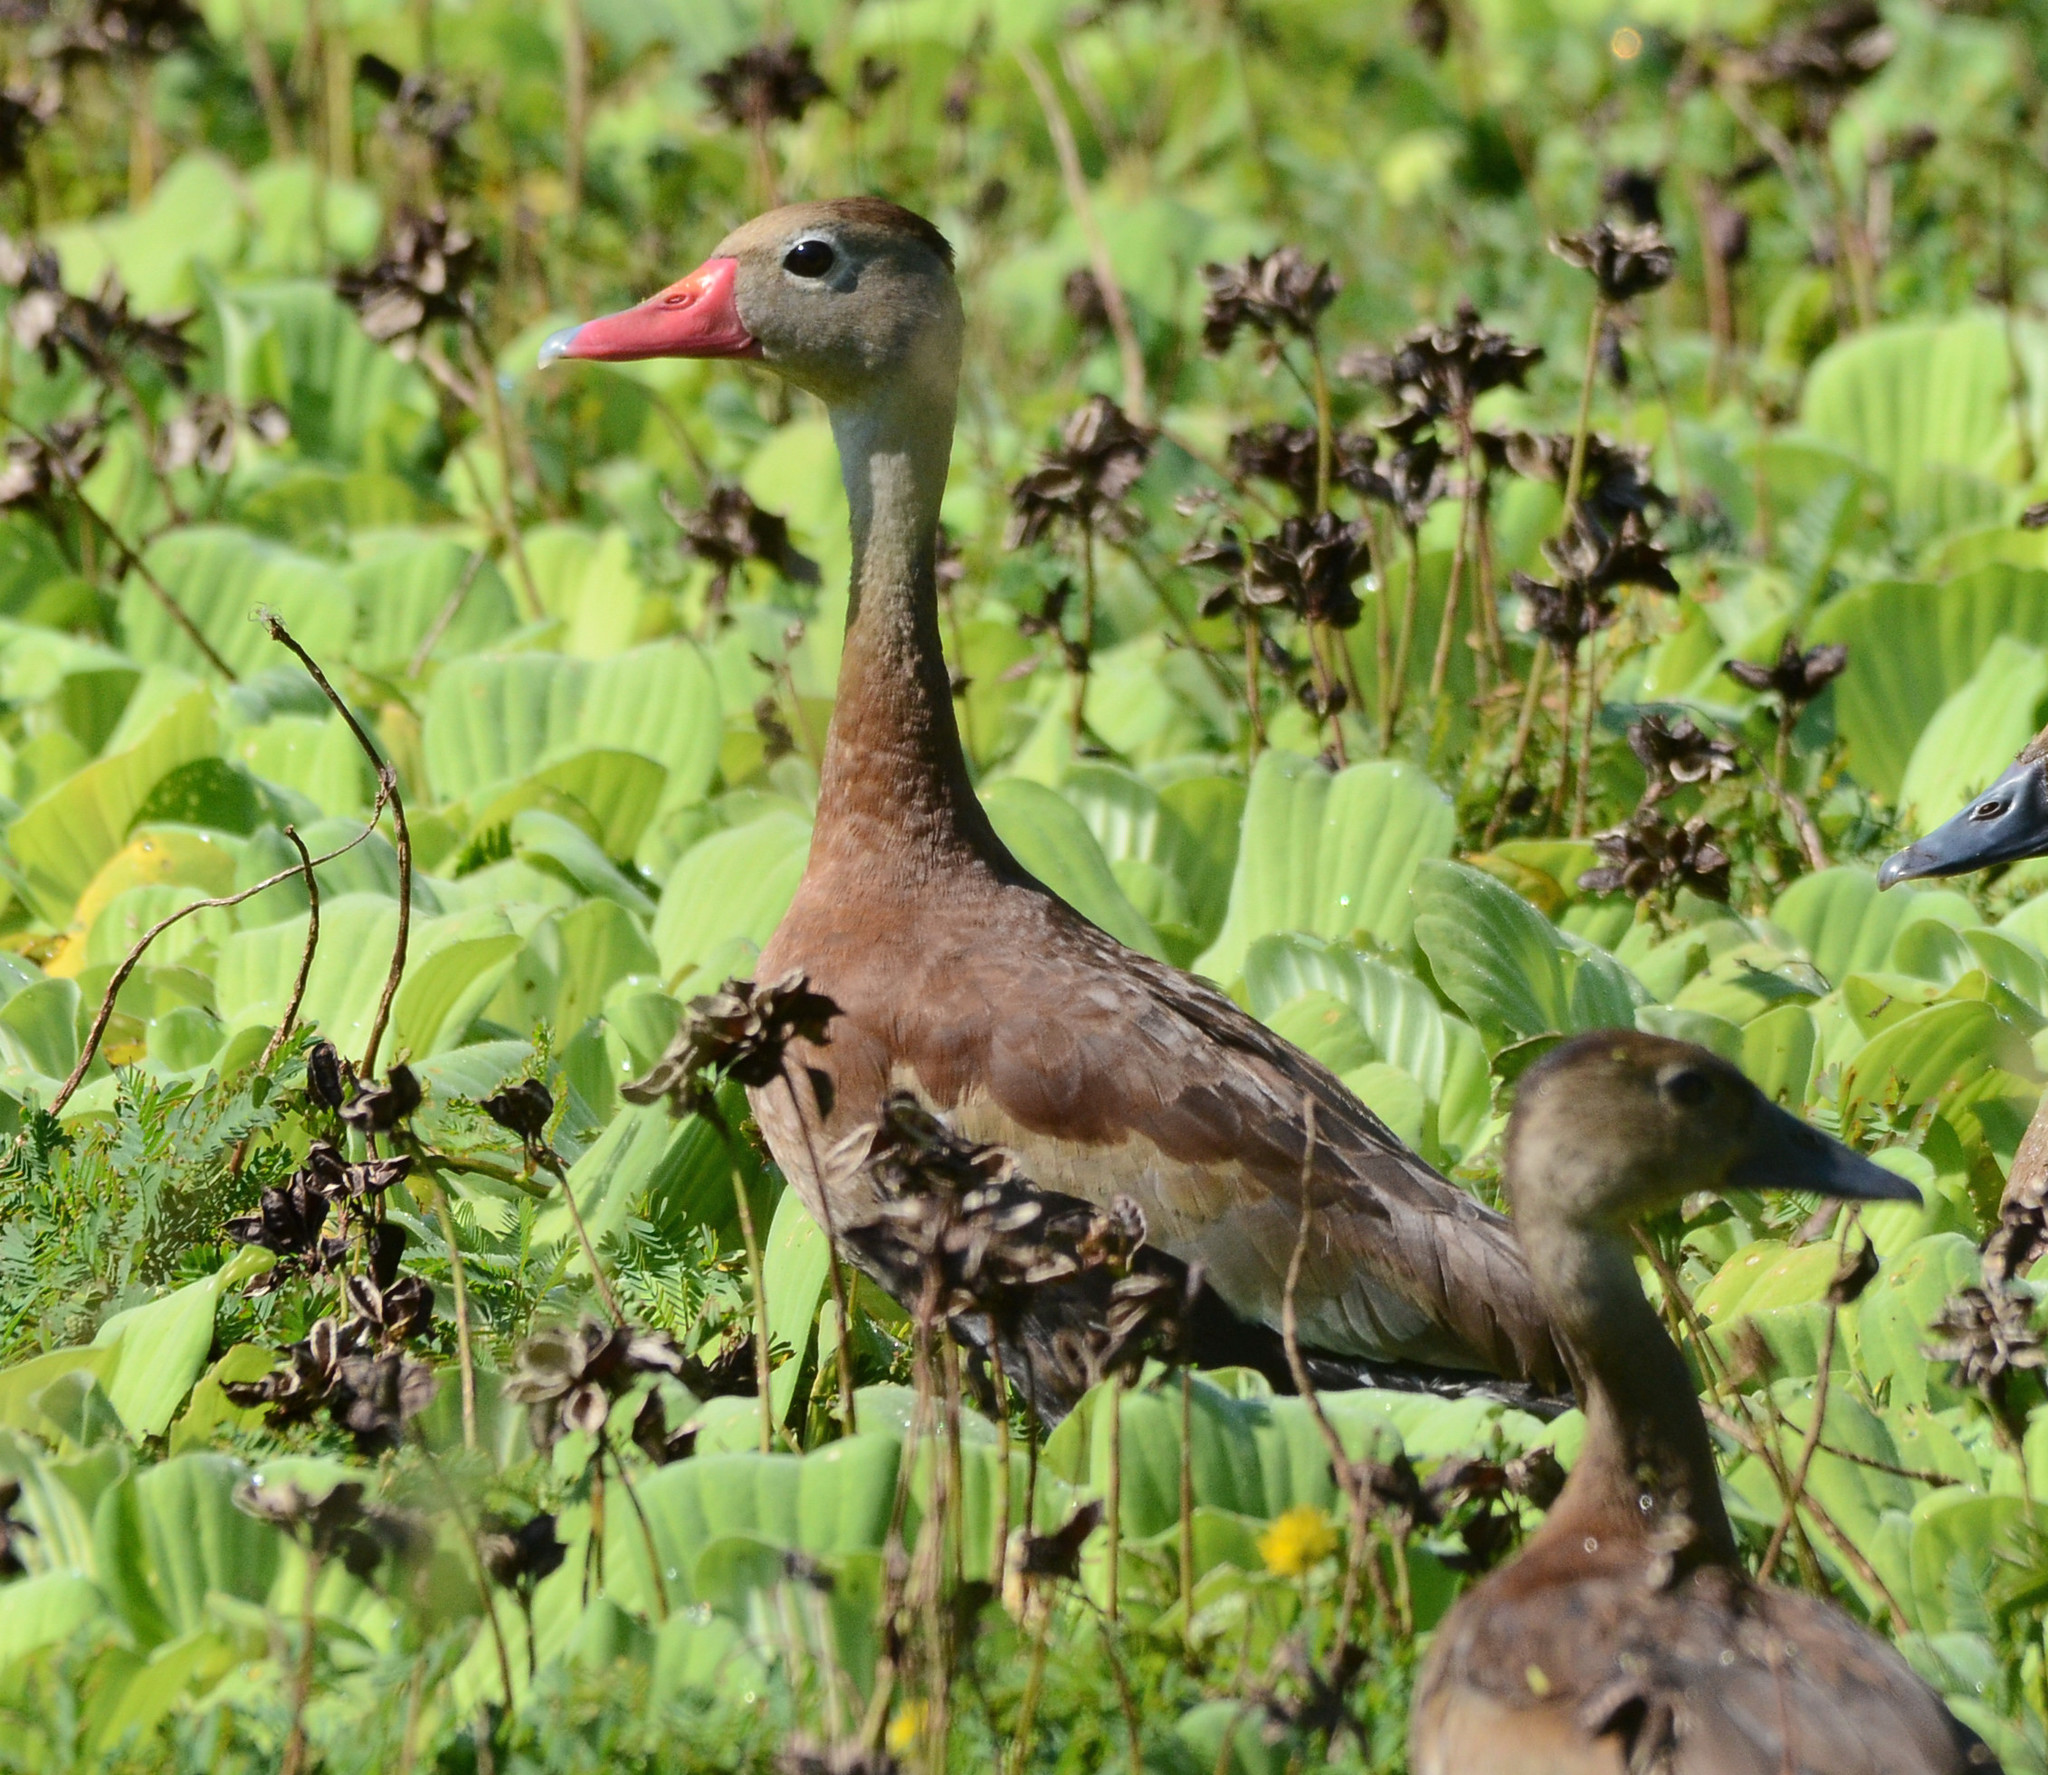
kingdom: Animalia
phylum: Chordata
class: Aves
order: Anseriformes
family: Anatidae
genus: Dendrocygna
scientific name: Dendrocygna autumnalis
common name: Black-bellied whistling duck
